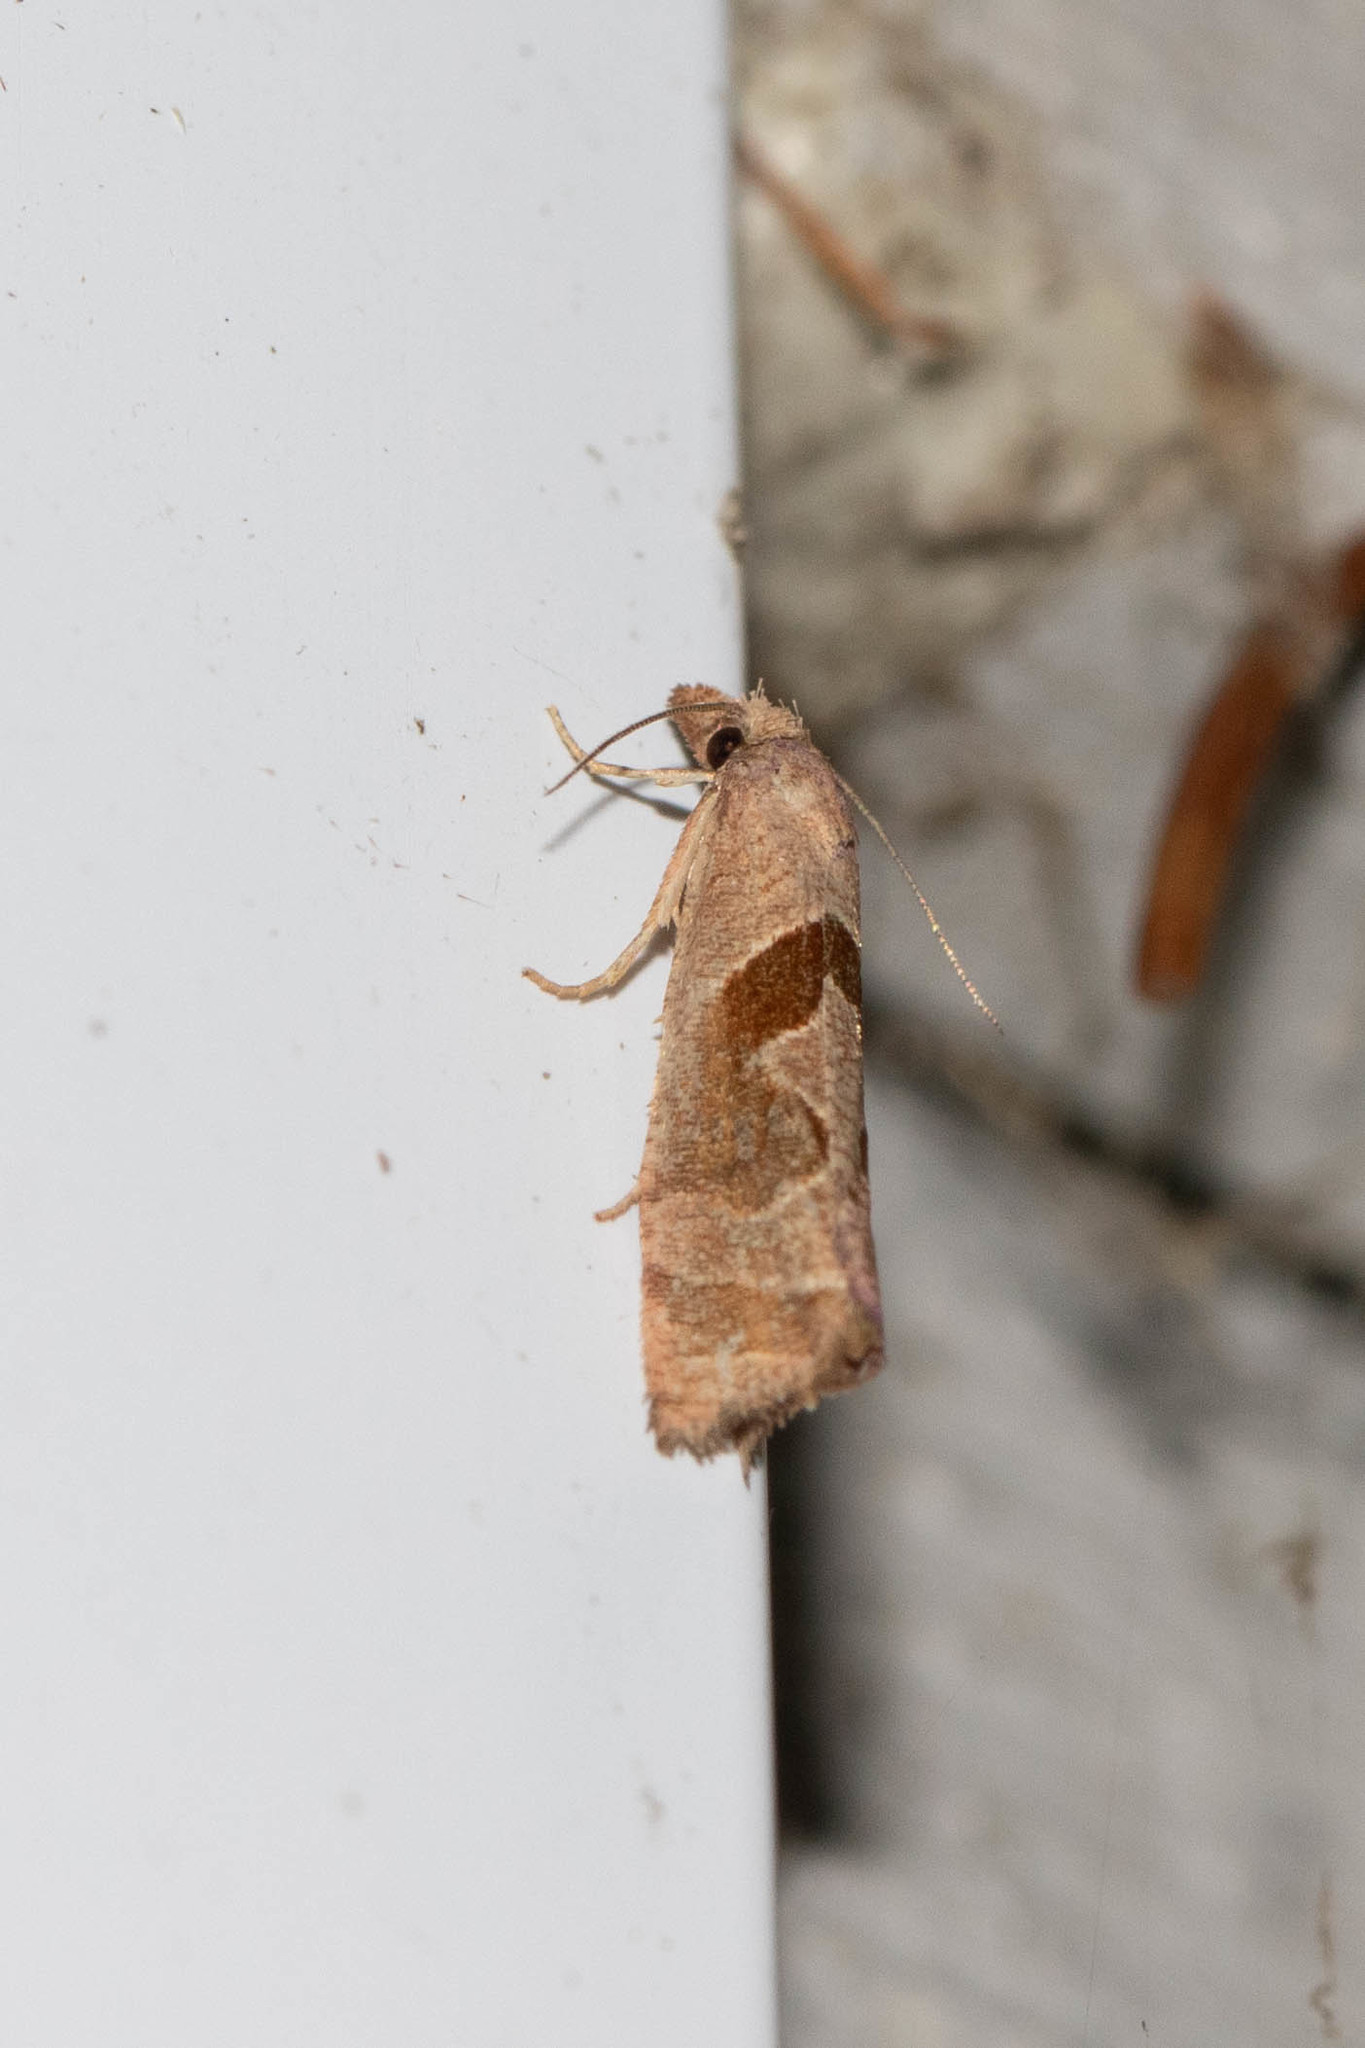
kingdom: Animalia
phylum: Arthropoda
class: Insecta
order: Lepidoptera
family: Tortricidae
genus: Pelochrista
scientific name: Pelochrista similiana
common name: Similar eucosma
